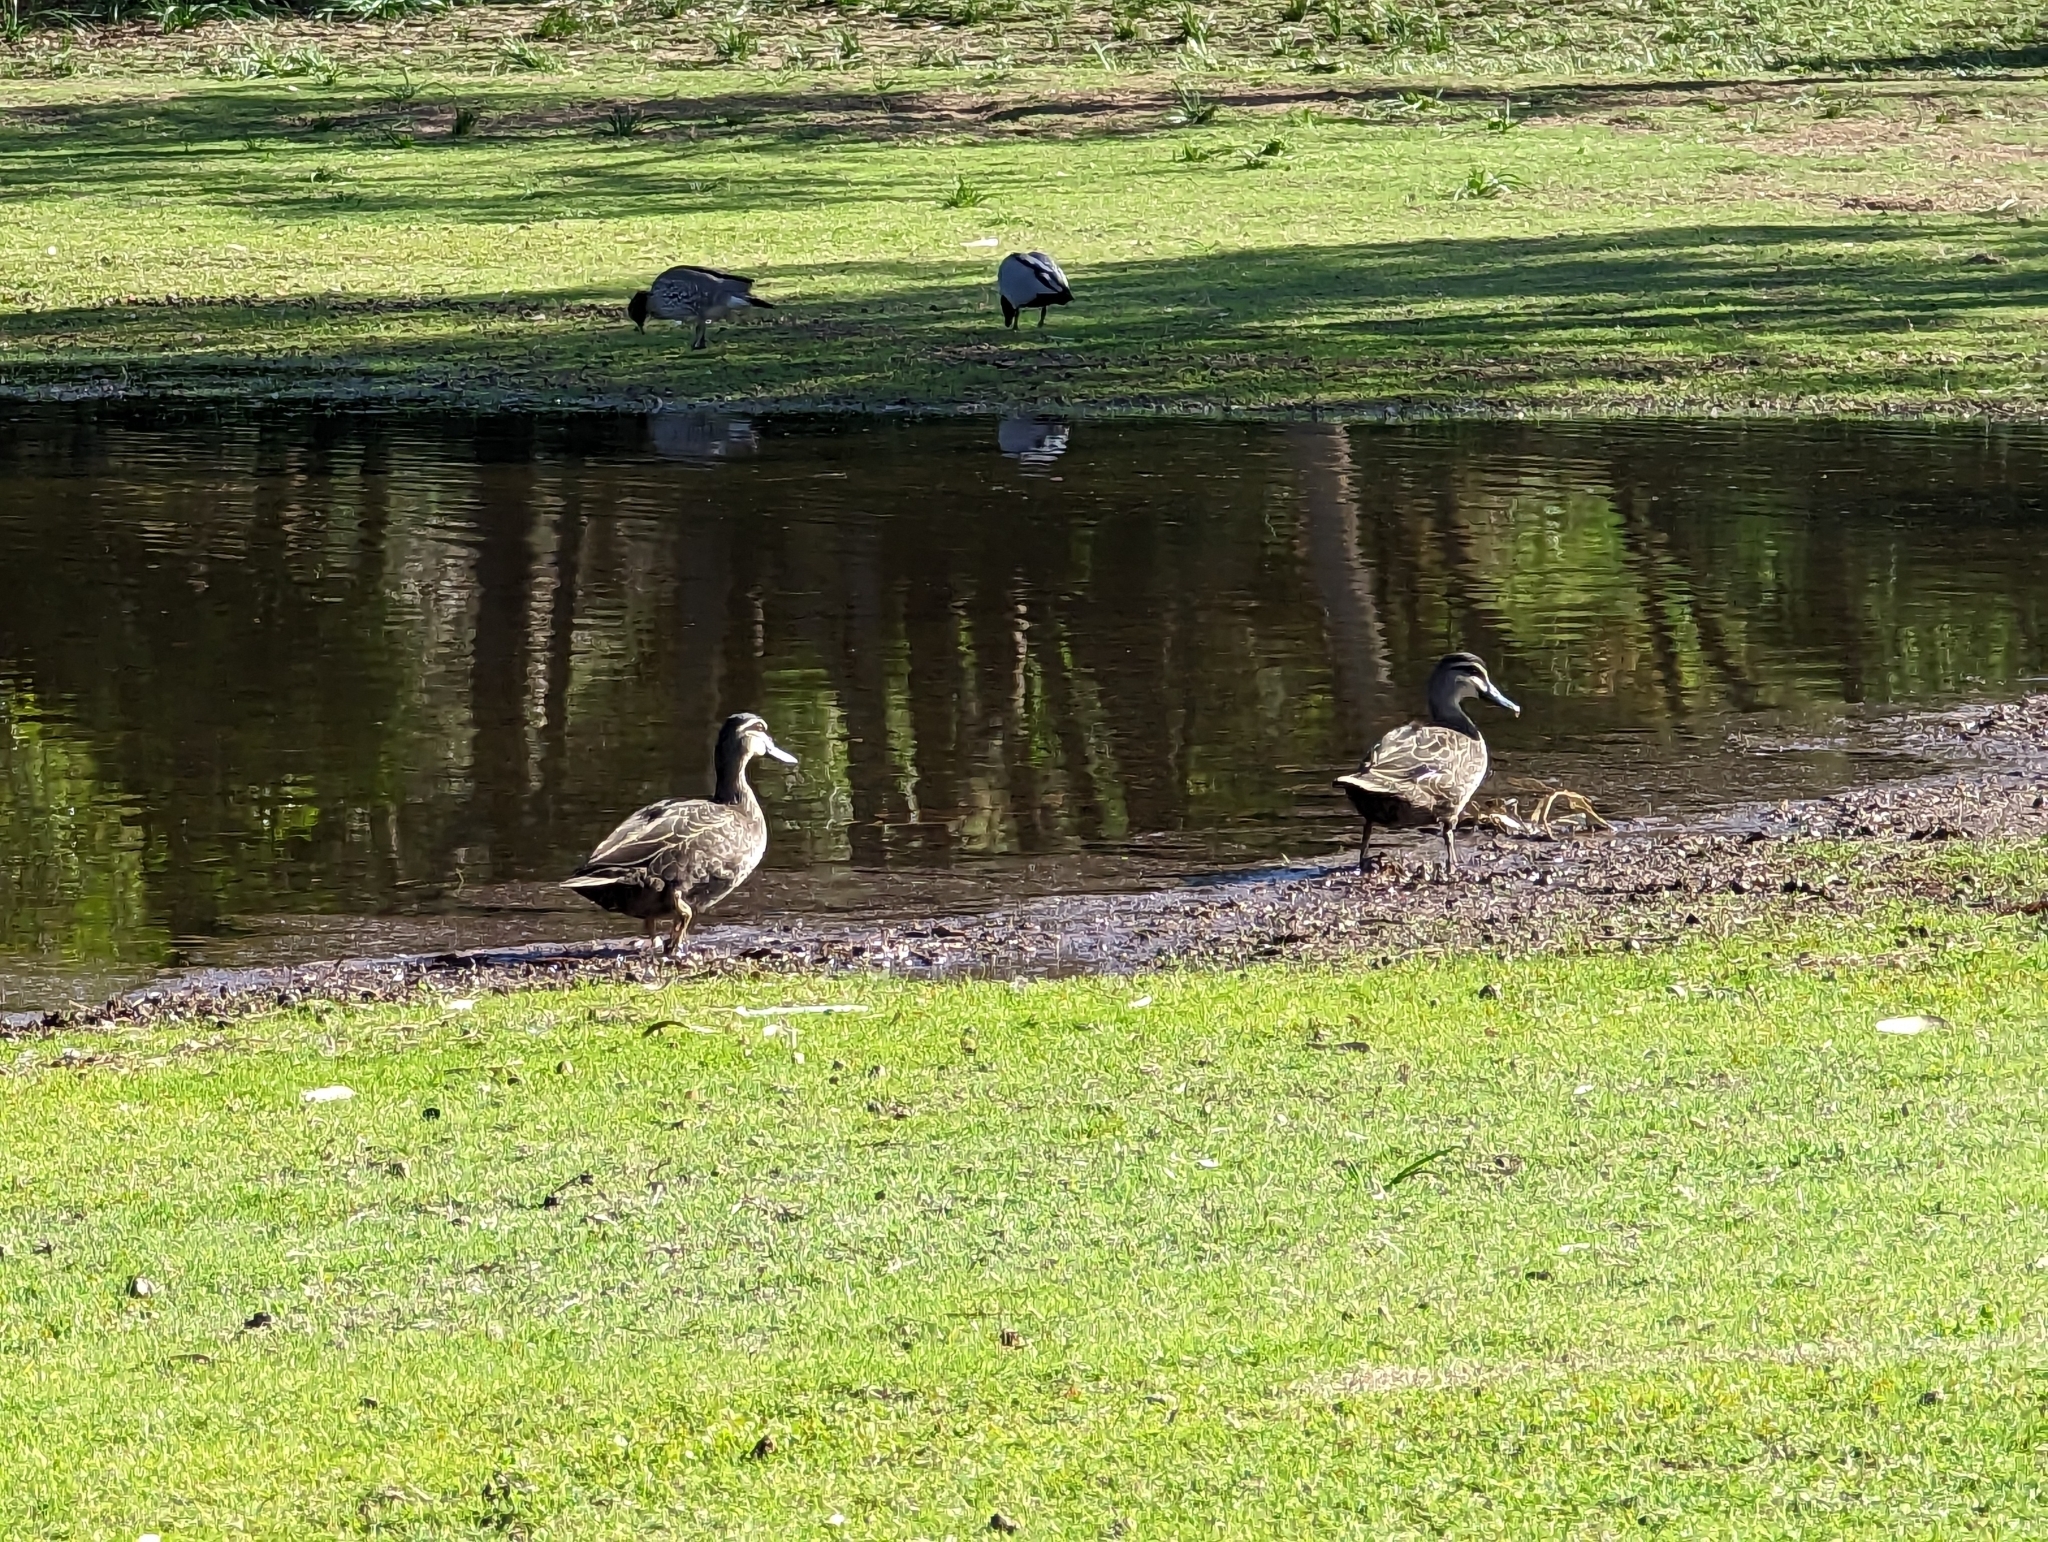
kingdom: Animalia
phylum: Chordata
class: Aves
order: Anseriformes
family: Anatidae
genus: Anas
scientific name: Anas superciliosa
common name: Pacific black duck
